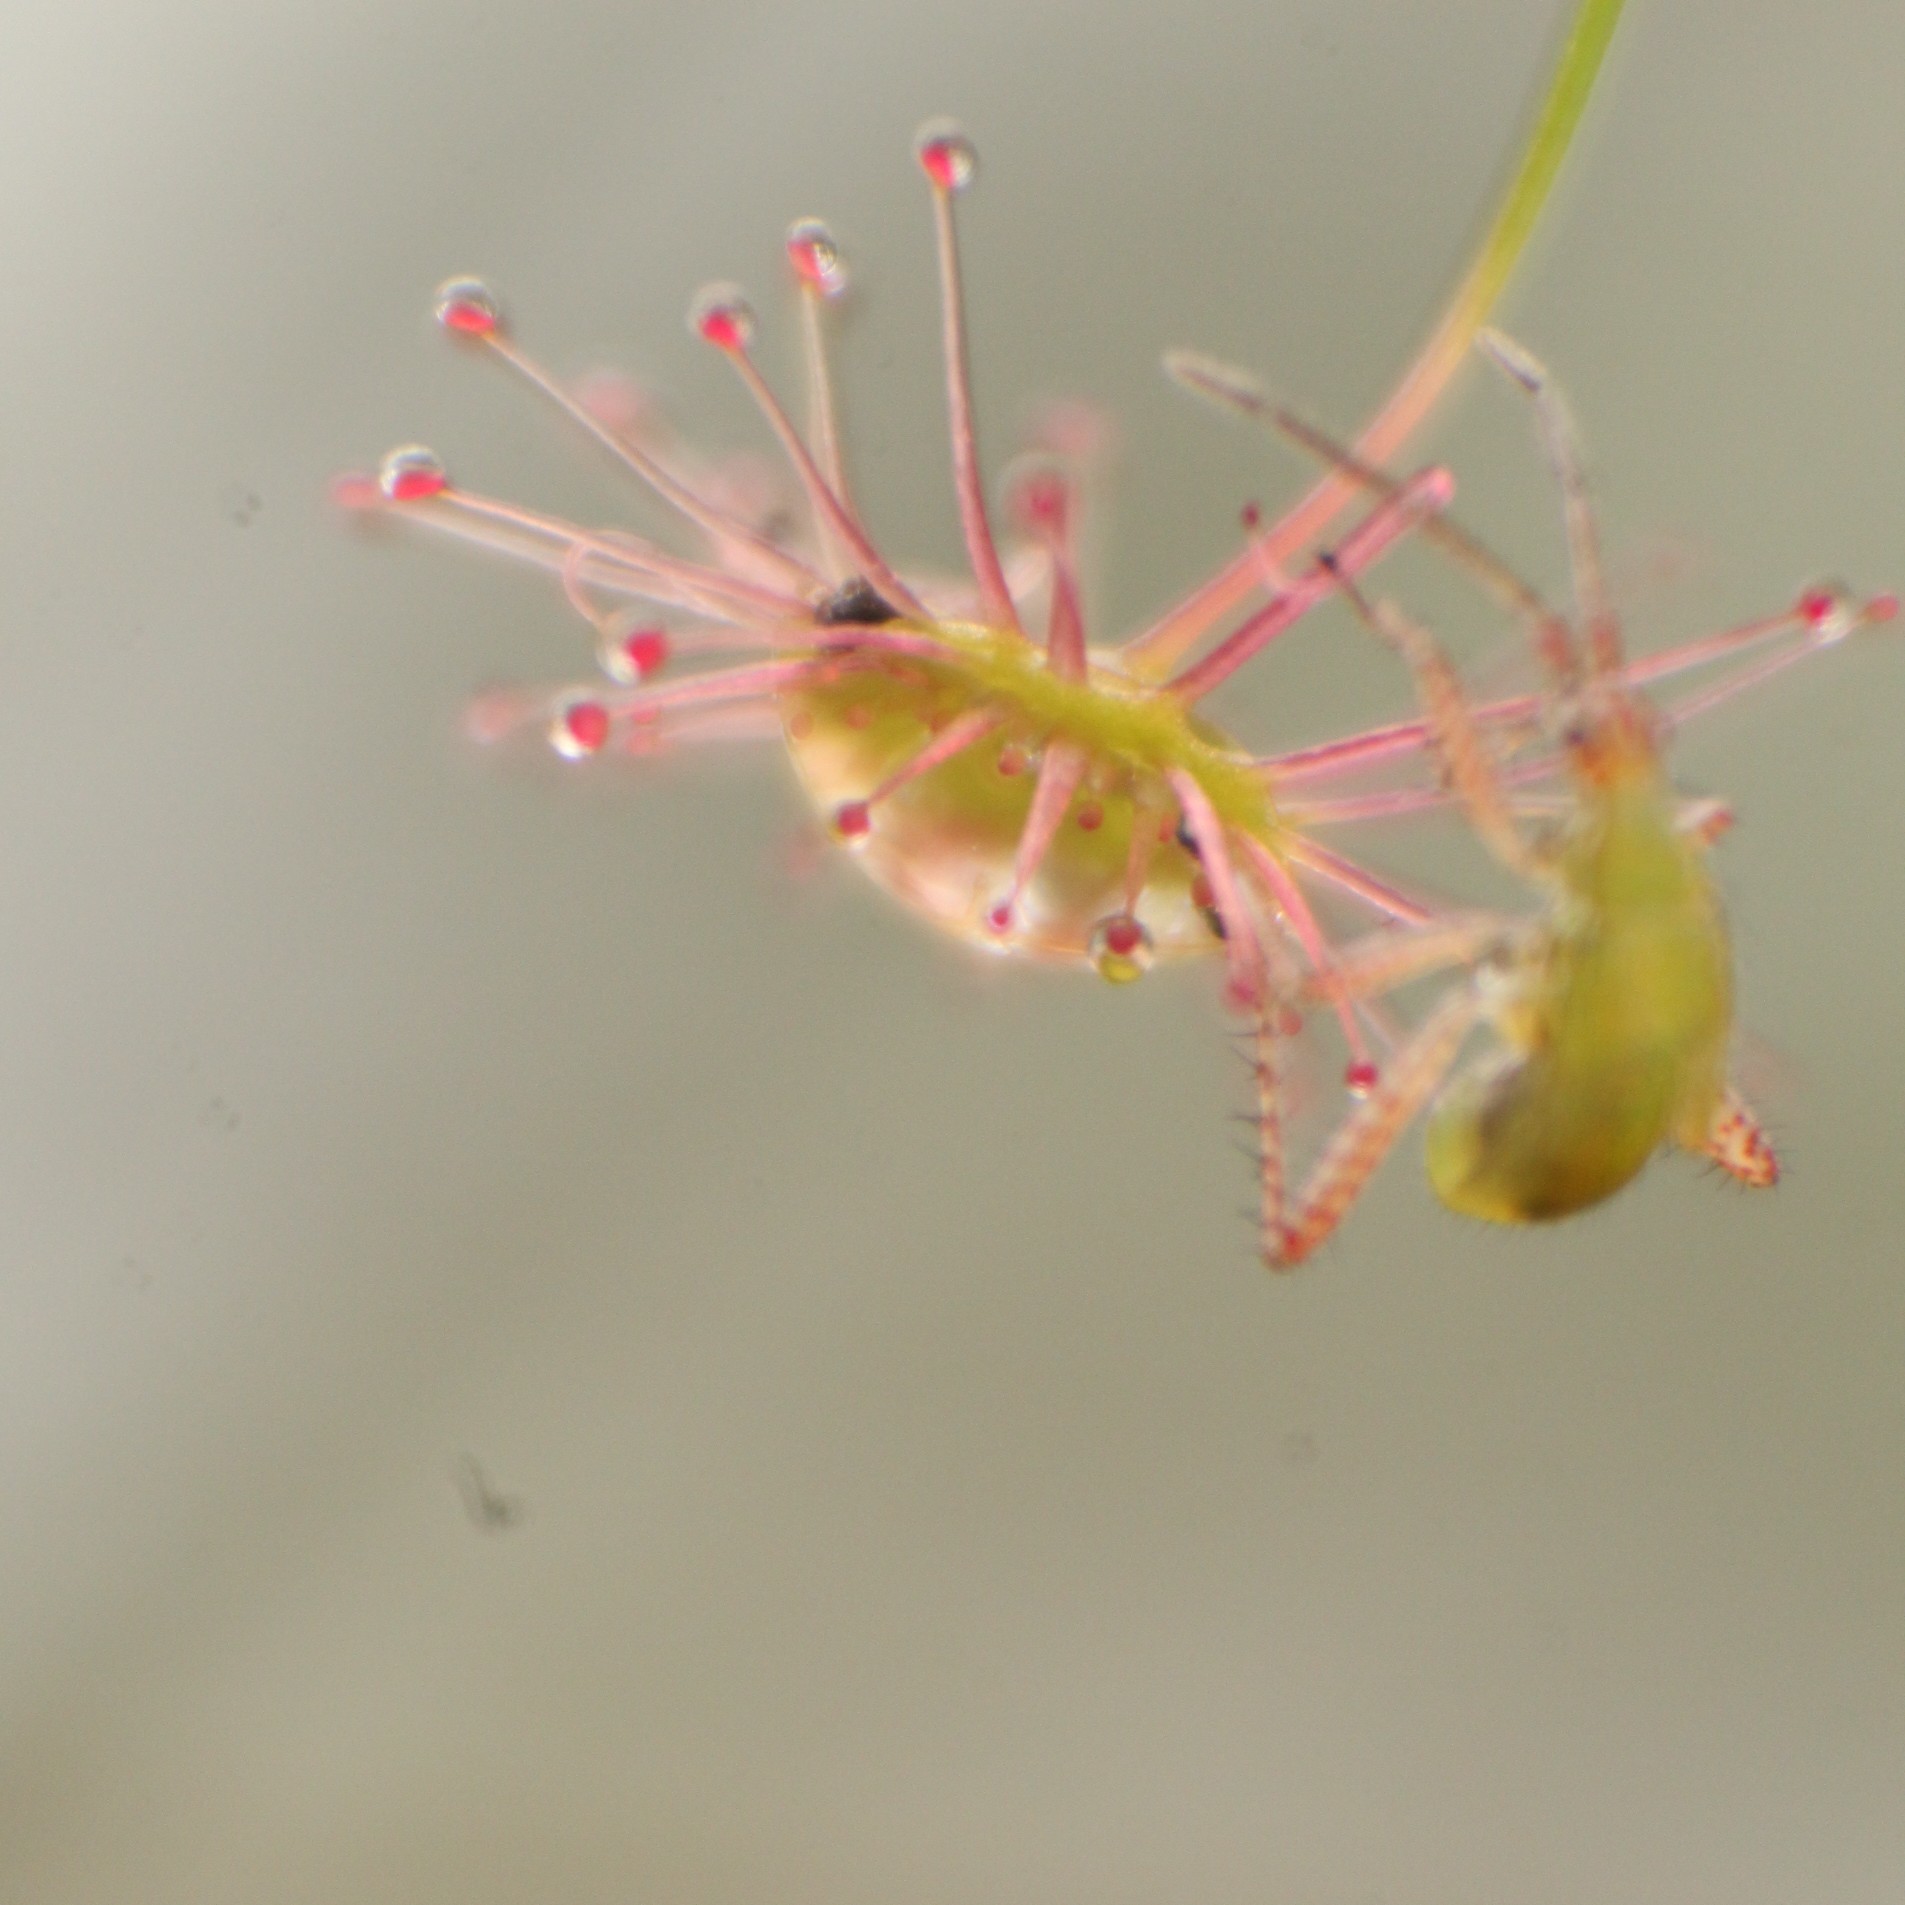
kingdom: Animalia
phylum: Arthropoda
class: Insecta
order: Hemiptera
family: Miridae
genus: Setocoris
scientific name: Setocoris
